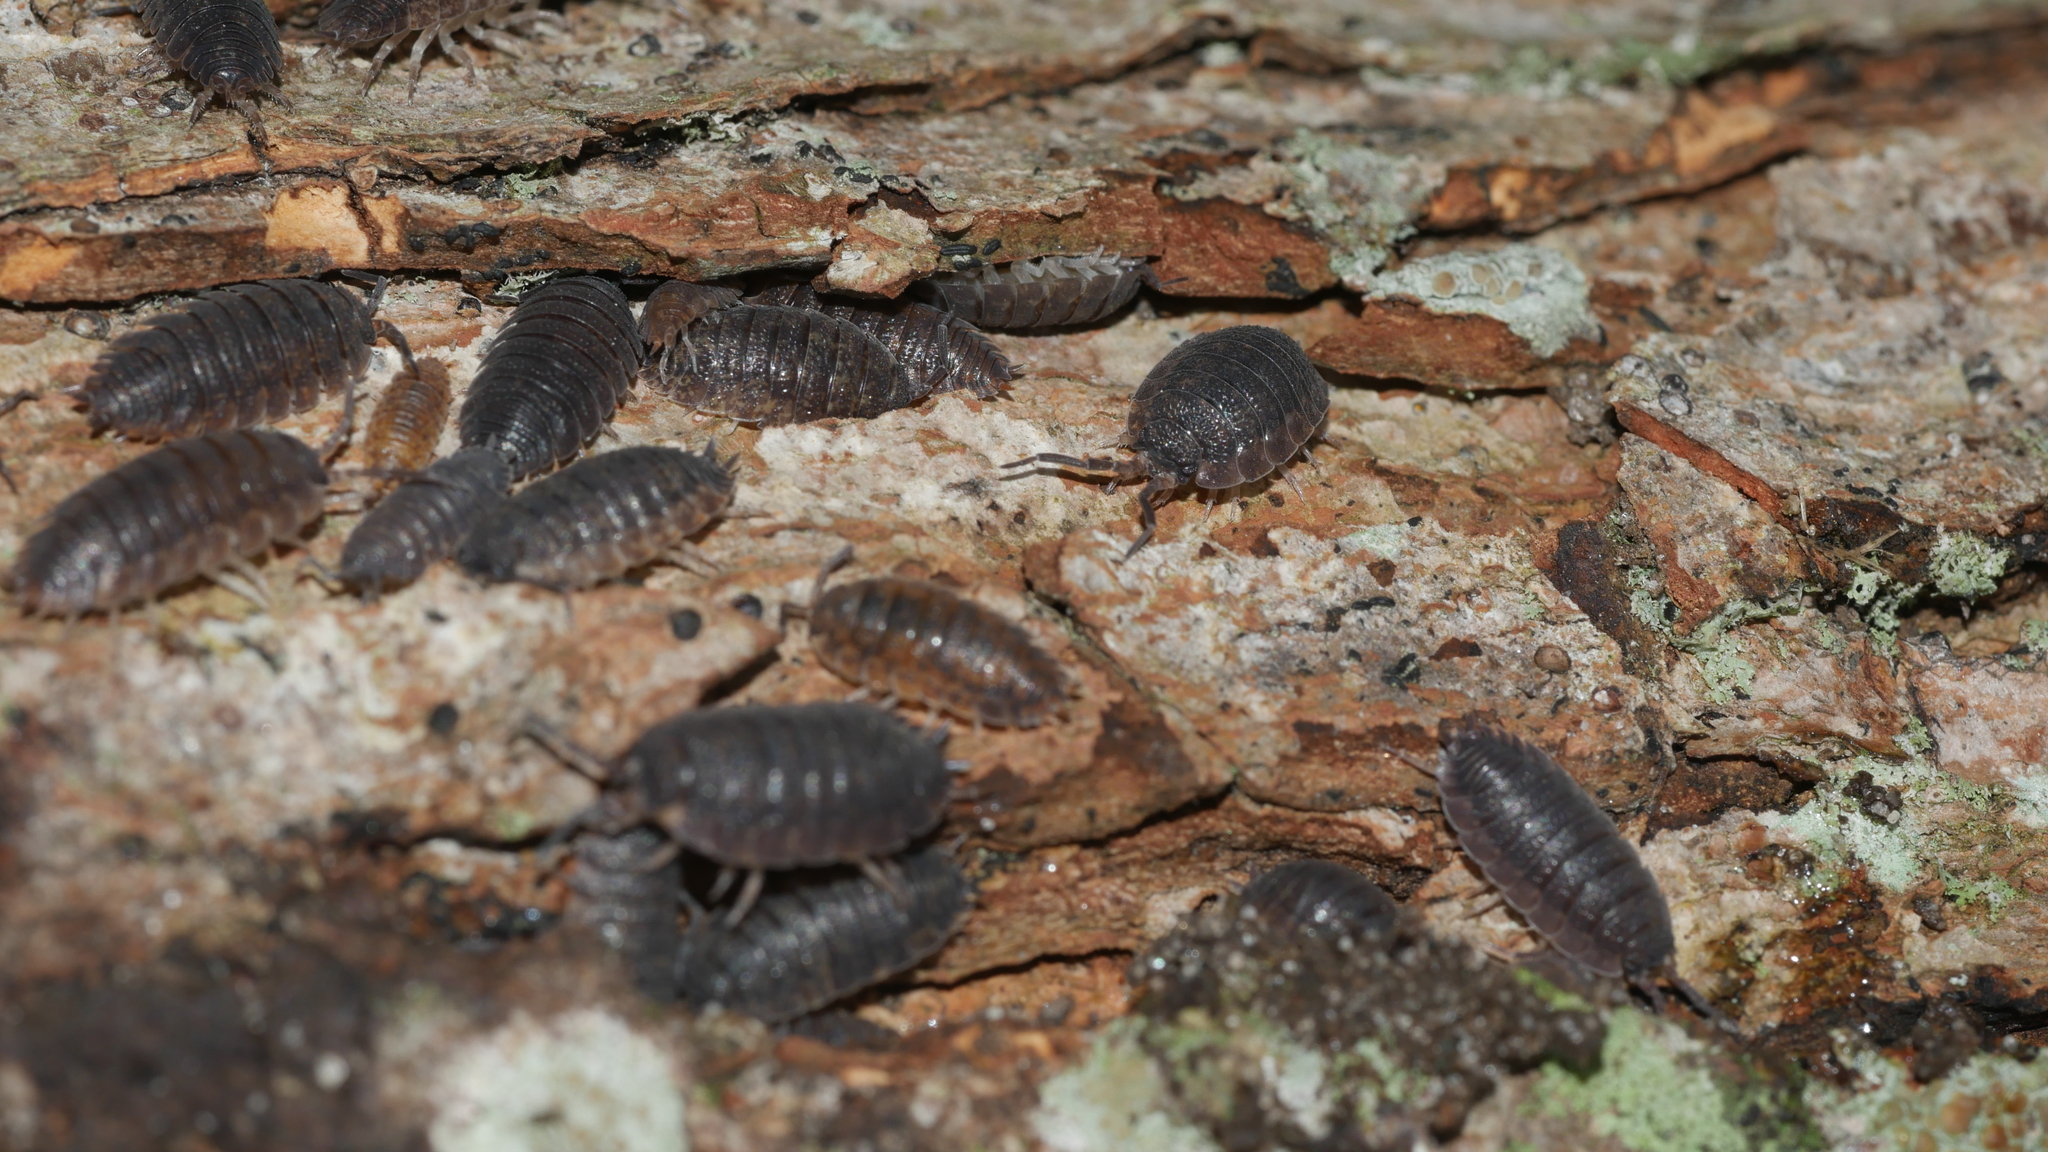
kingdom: Animalia
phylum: Arthropoda
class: Malacostraca
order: Isopoda
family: Porcellionidae
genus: Porcellio
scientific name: Porcellio scaber
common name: Common rough woodlouse
